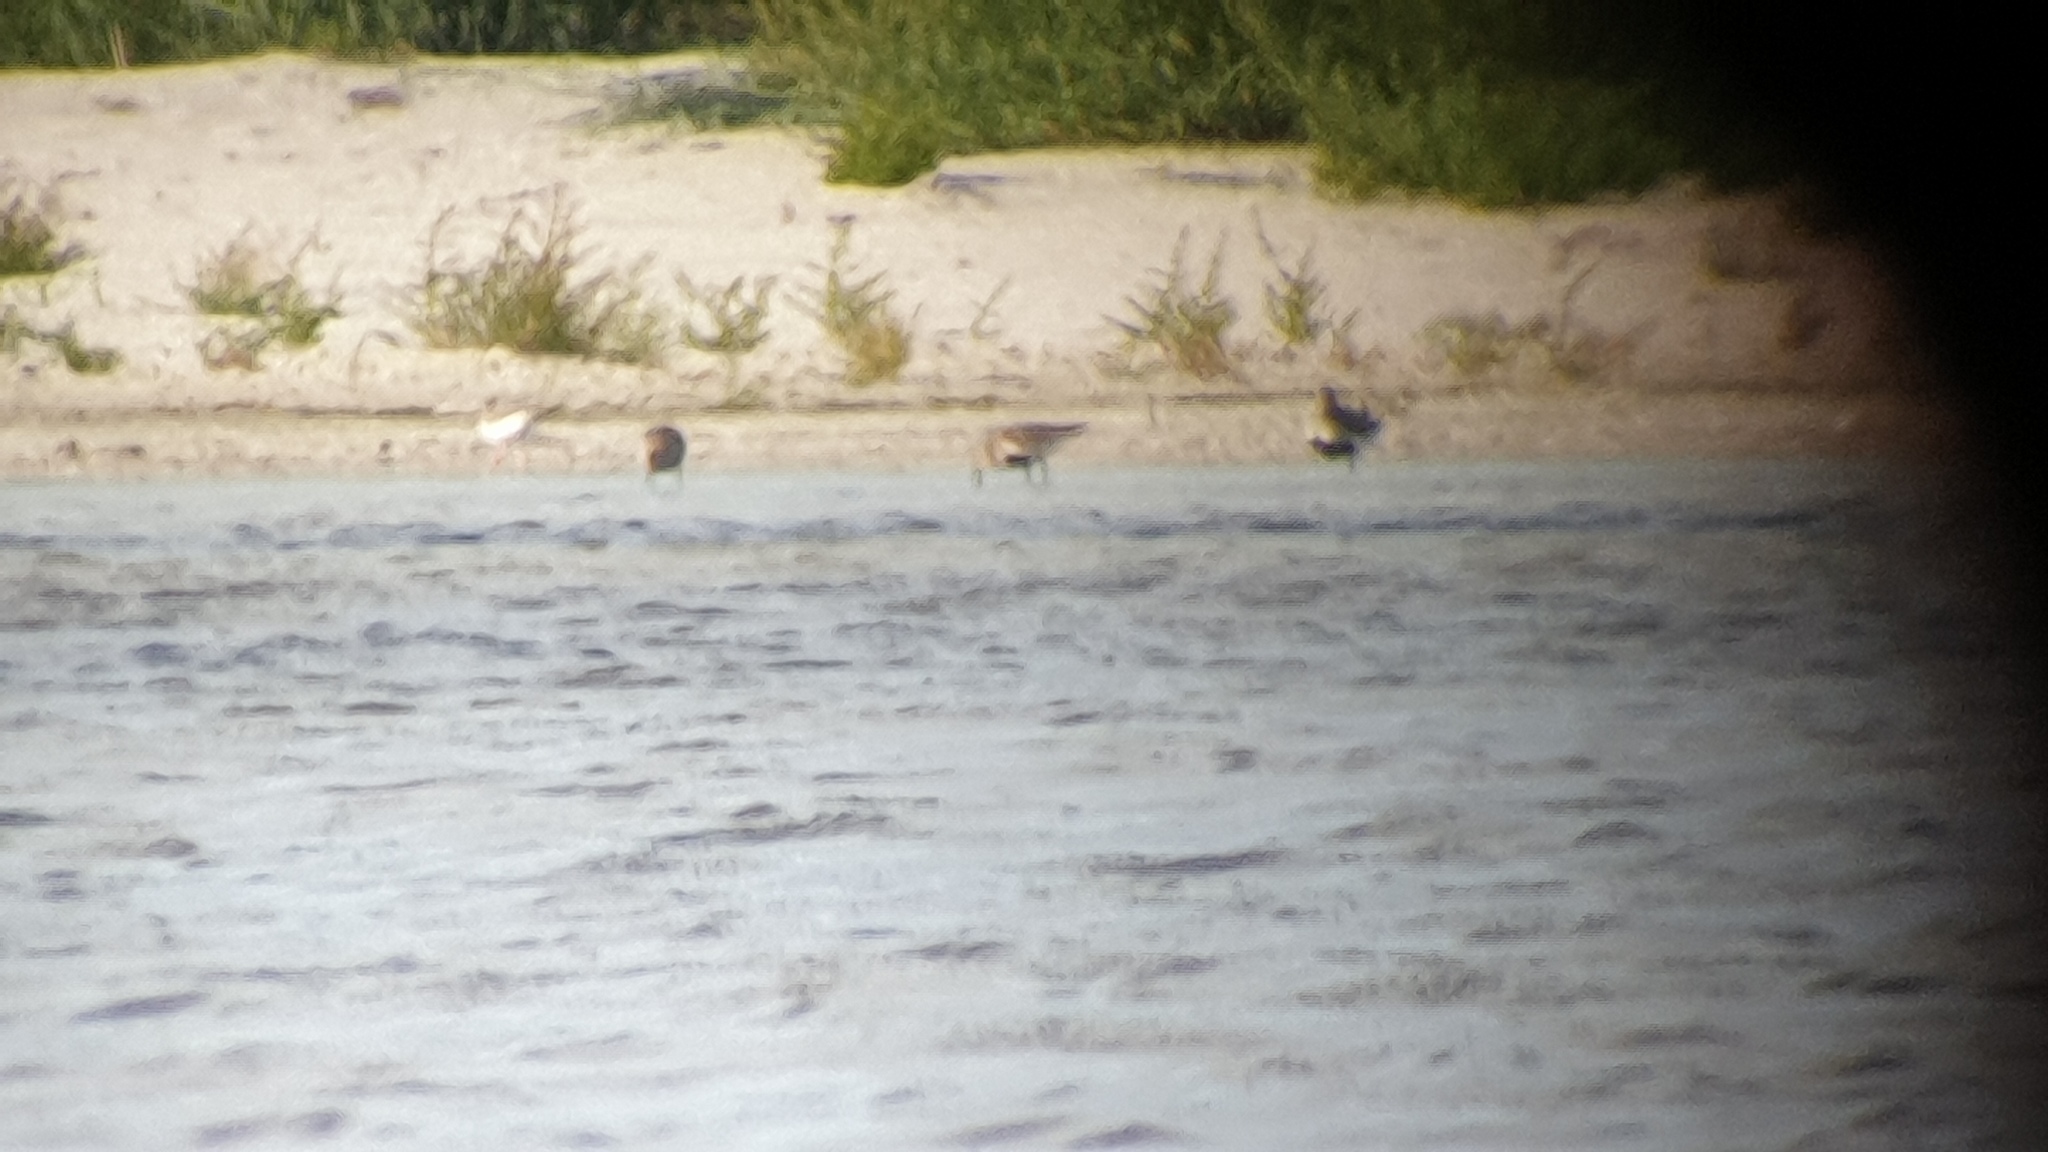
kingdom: Animalia
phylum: Chordata
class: Aves
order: Charadriiformes
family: Scolopacidae
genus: Calidris
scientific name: Calidris alpina
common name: Dunlin
